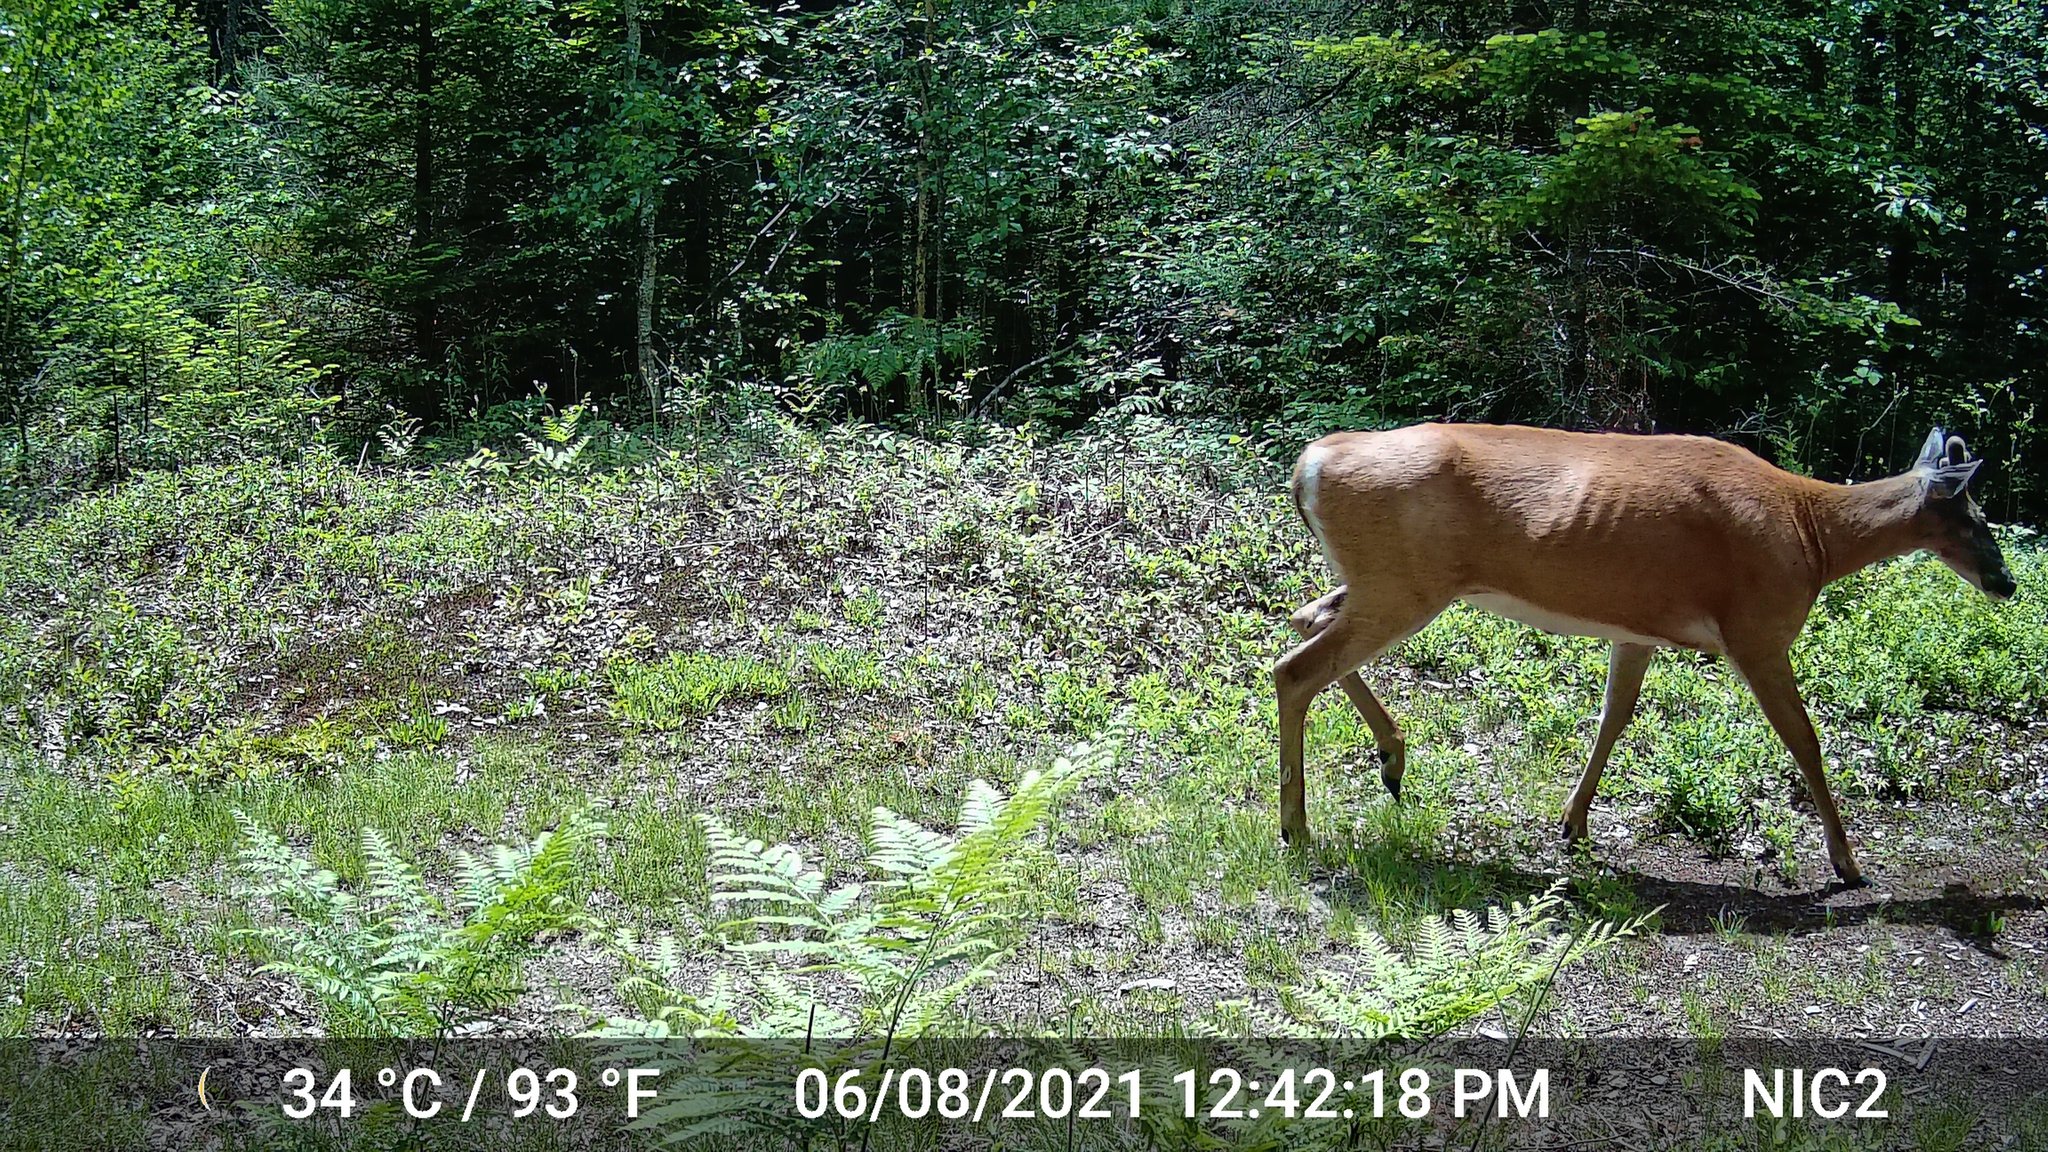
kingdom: Animalia
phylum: Chordata
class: Mammalia
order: Artiodactyla
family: Cervidae
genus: Odocoileus
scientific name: Odocoileus virginianus
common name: White-tailed deer
